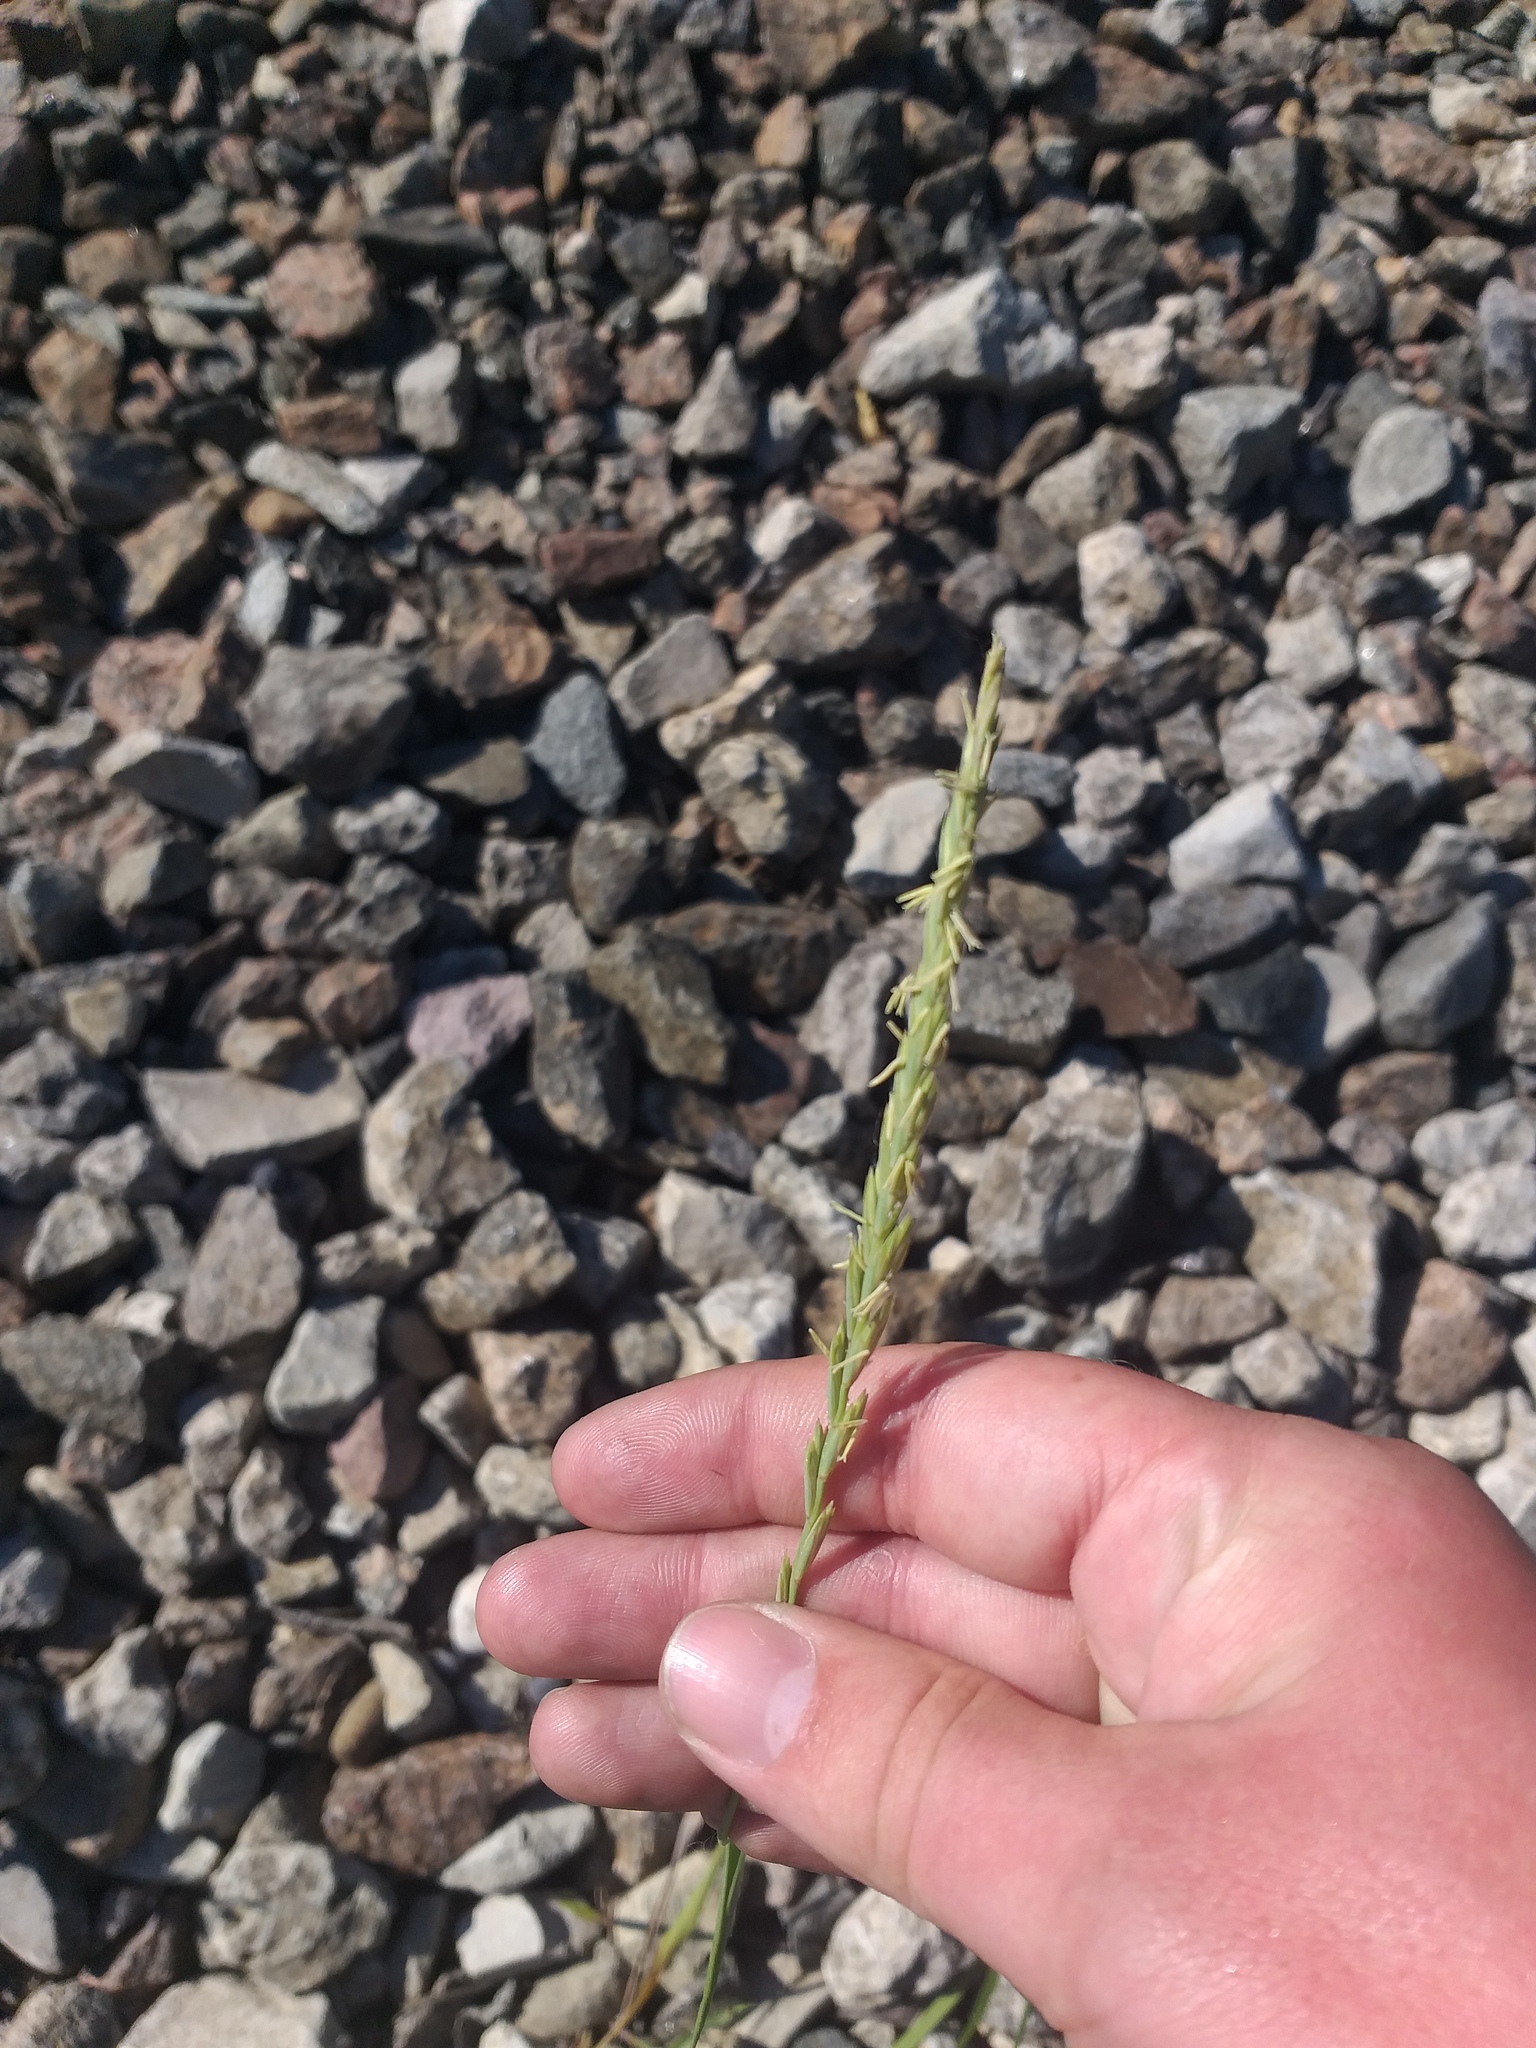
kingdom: Plantae
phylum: Tracheophyta
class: Liliopsida
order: Poales
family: Poaceae
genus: Elymus
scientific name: Elymus repens
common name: Quackgrass
